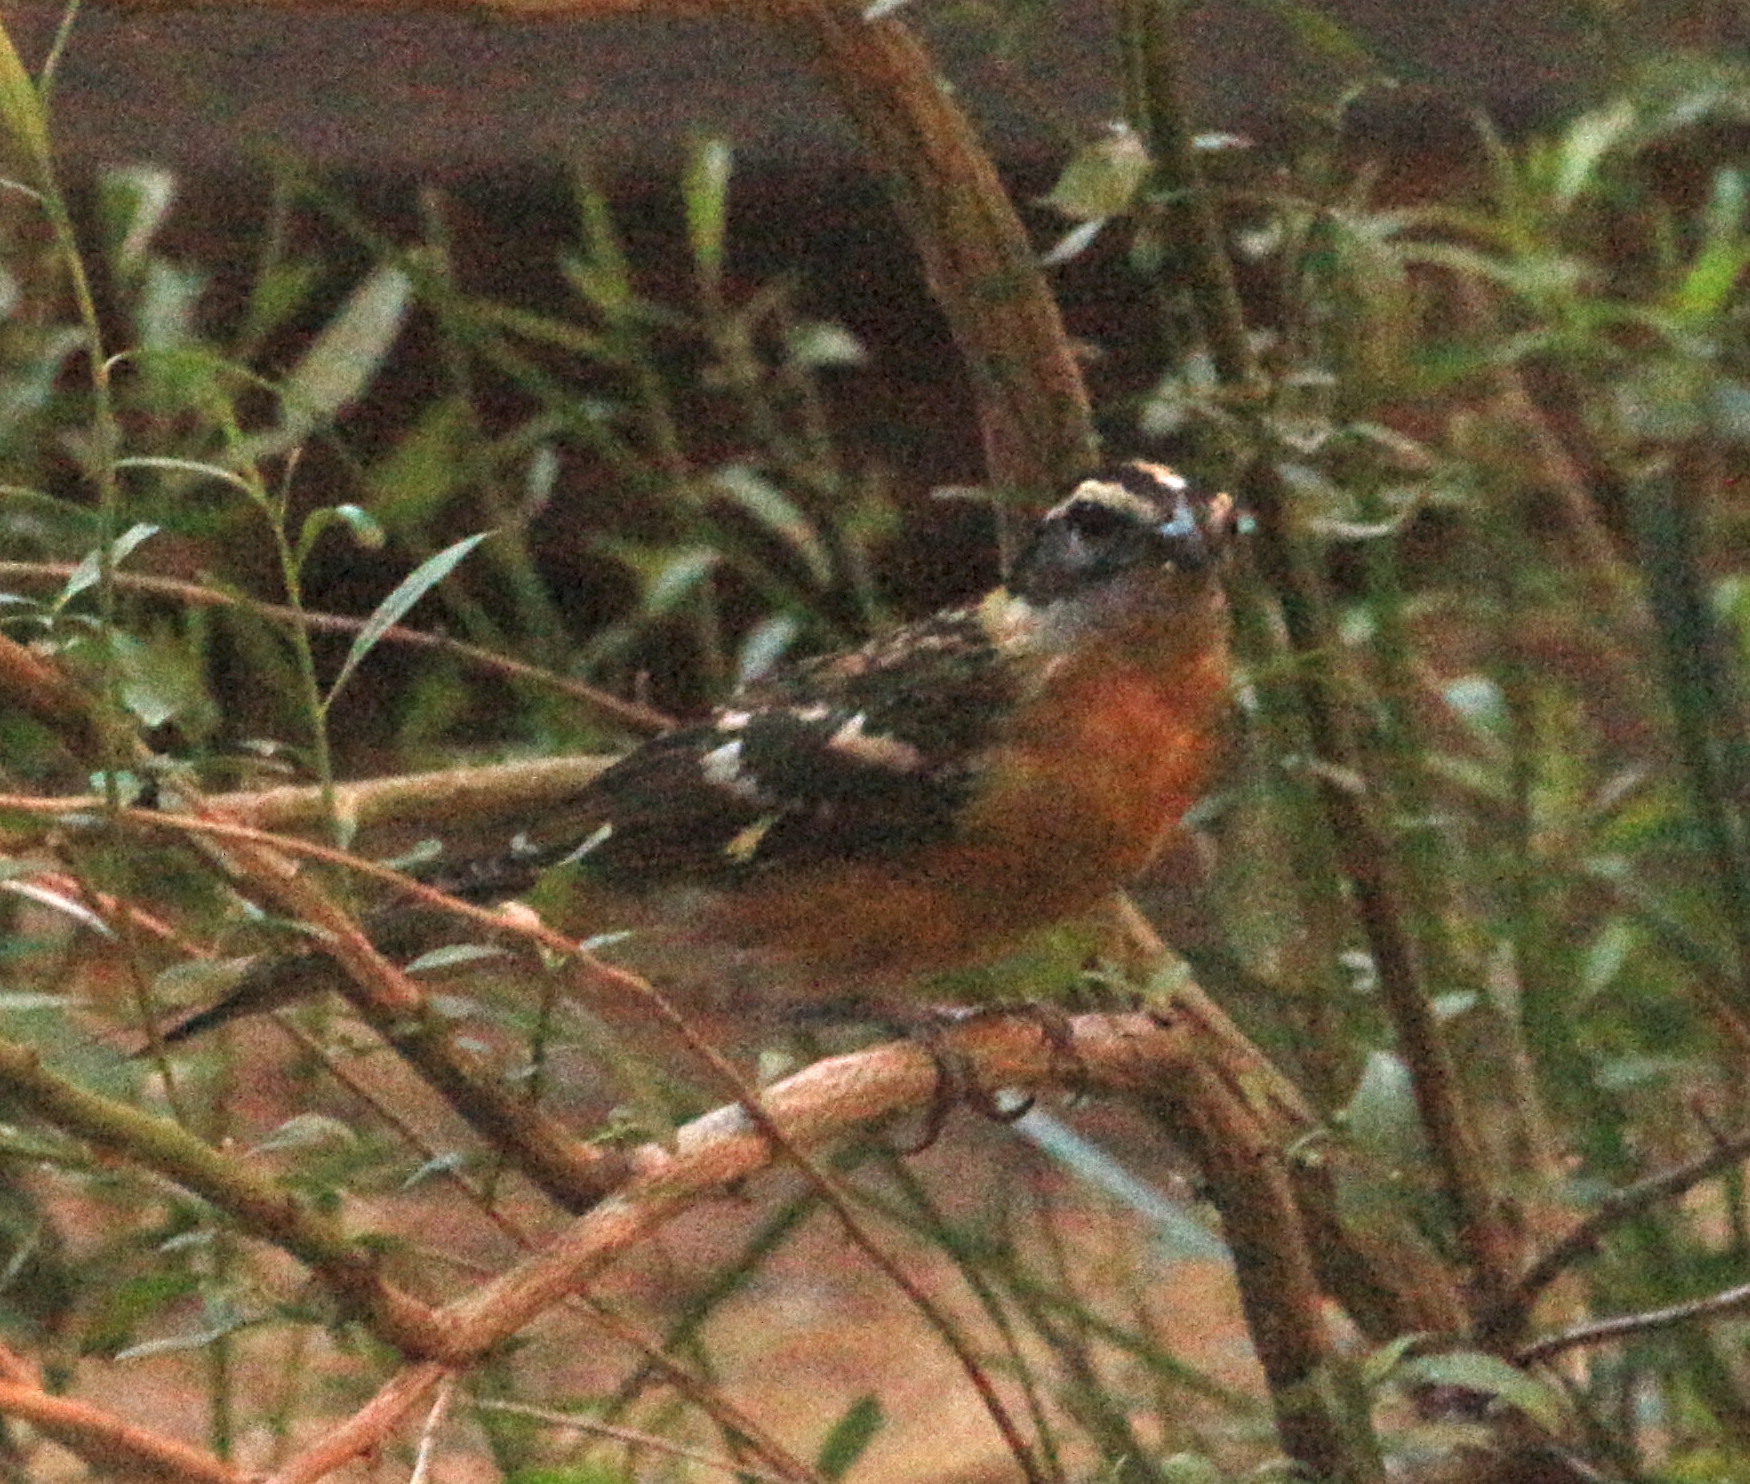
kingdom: Animalia
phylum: Chordata
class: Aves
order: Passeriformes
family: Cardinalidae
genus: Pheucticus
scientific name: Pheucticus melanocephalus
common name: Black-headed grosbeak
